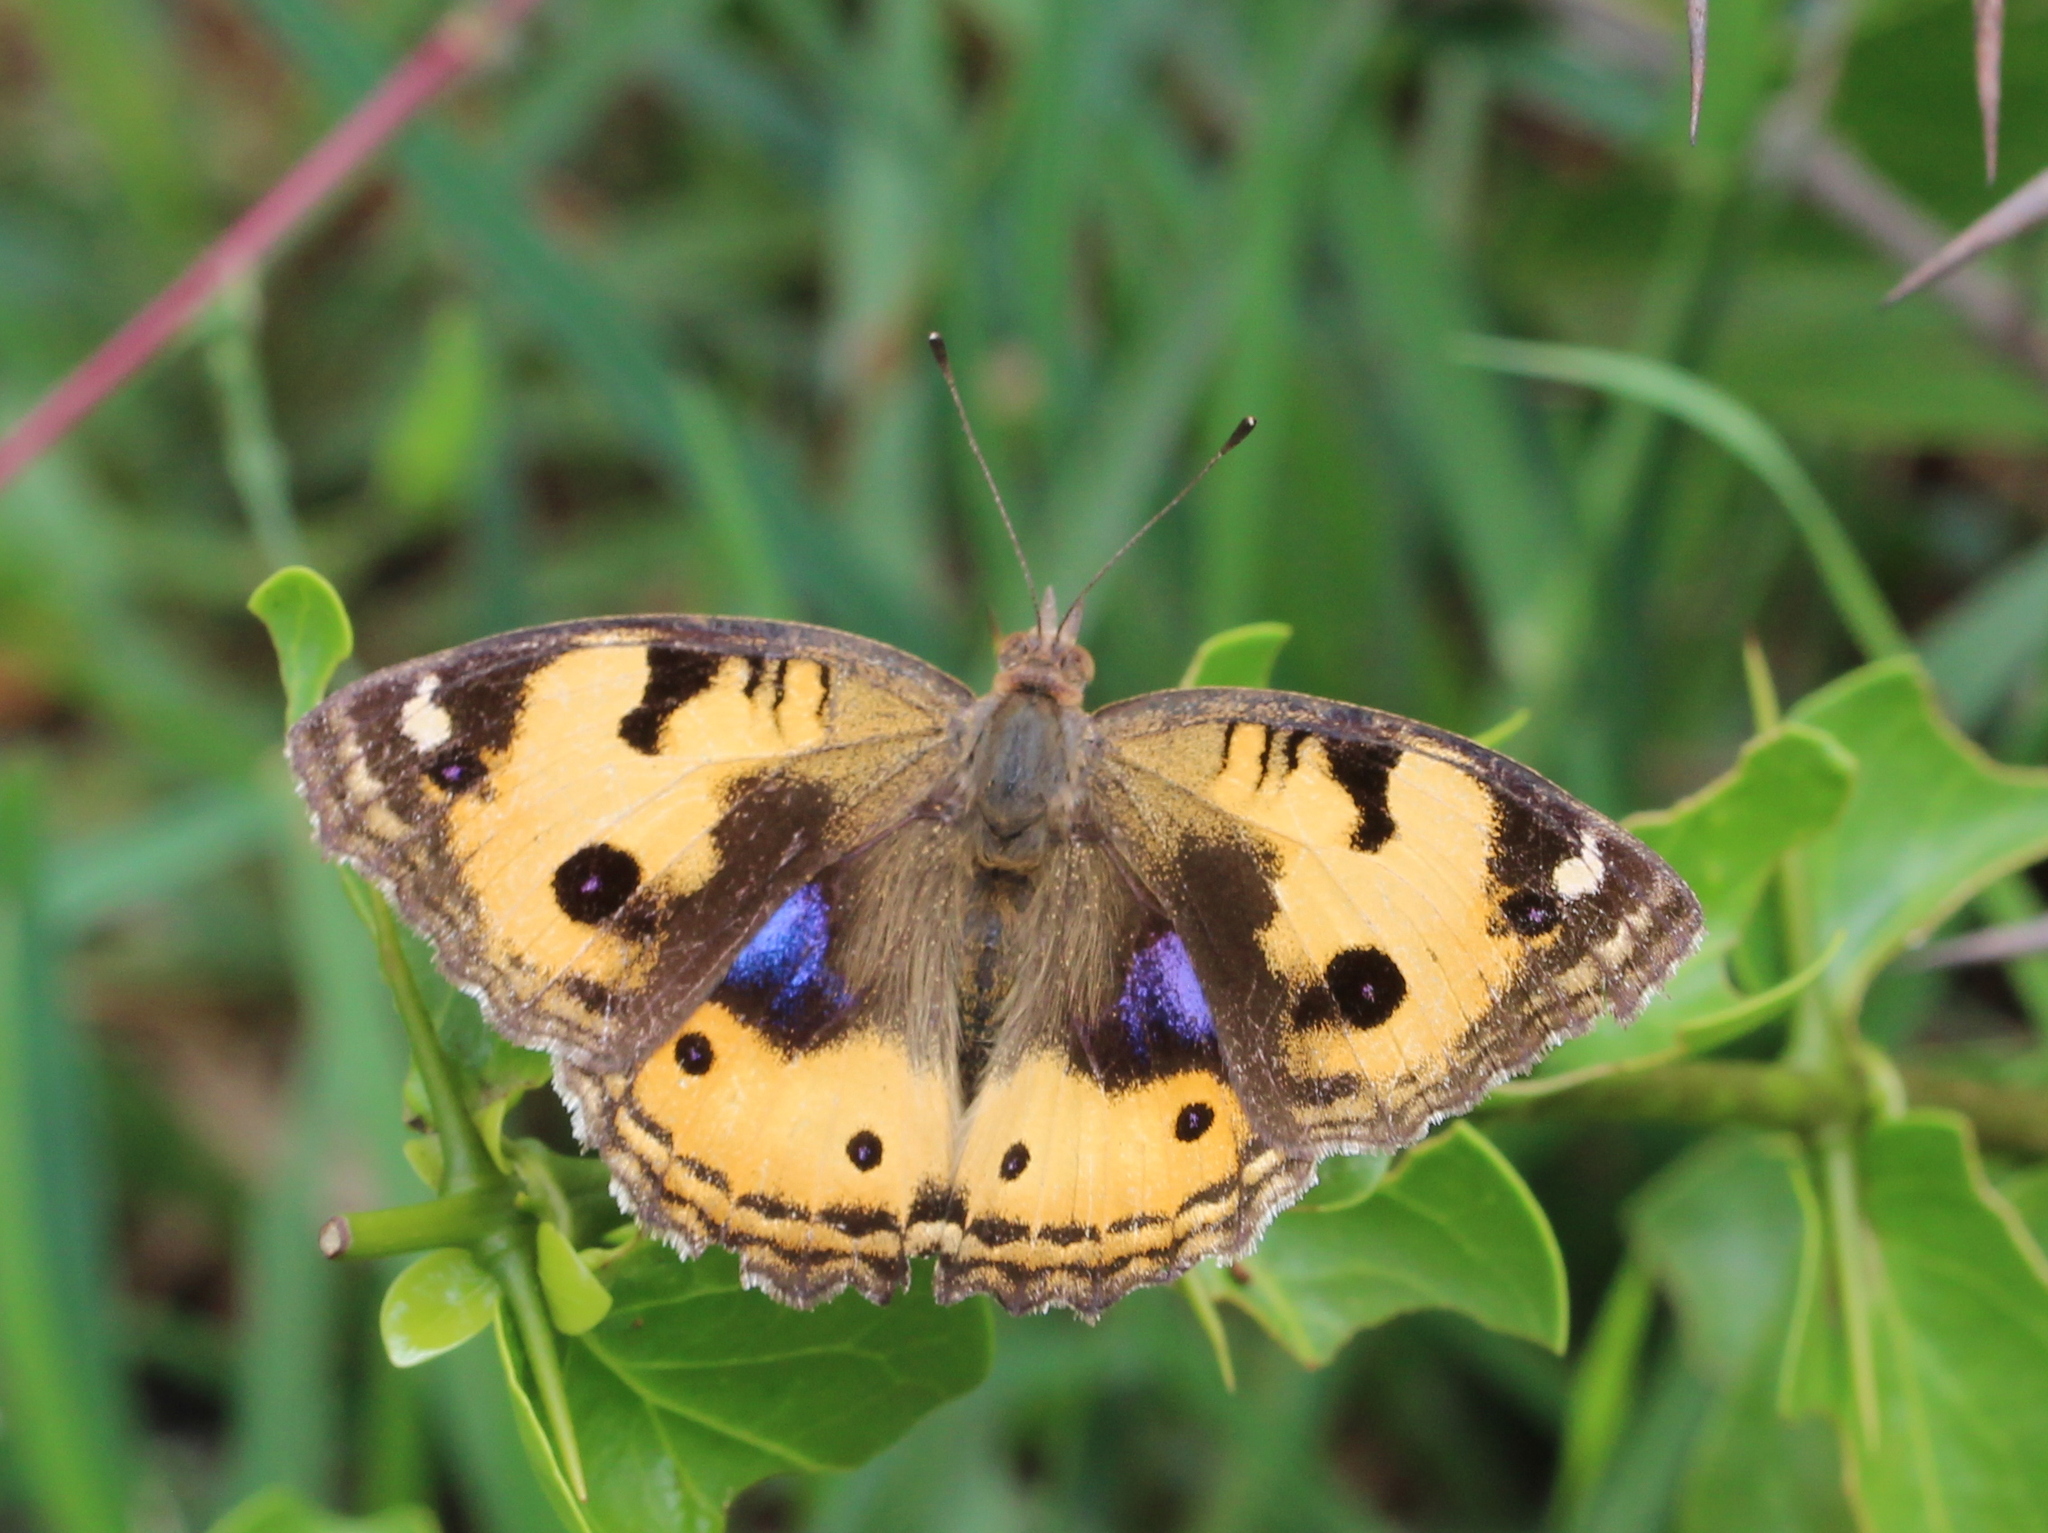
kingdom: Animalia
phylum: Arthropoda
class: Insecta
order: Lepidoptera
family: Nymphalidae
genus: Junonia
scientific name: Junonia hierta
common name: Yellow pansy
